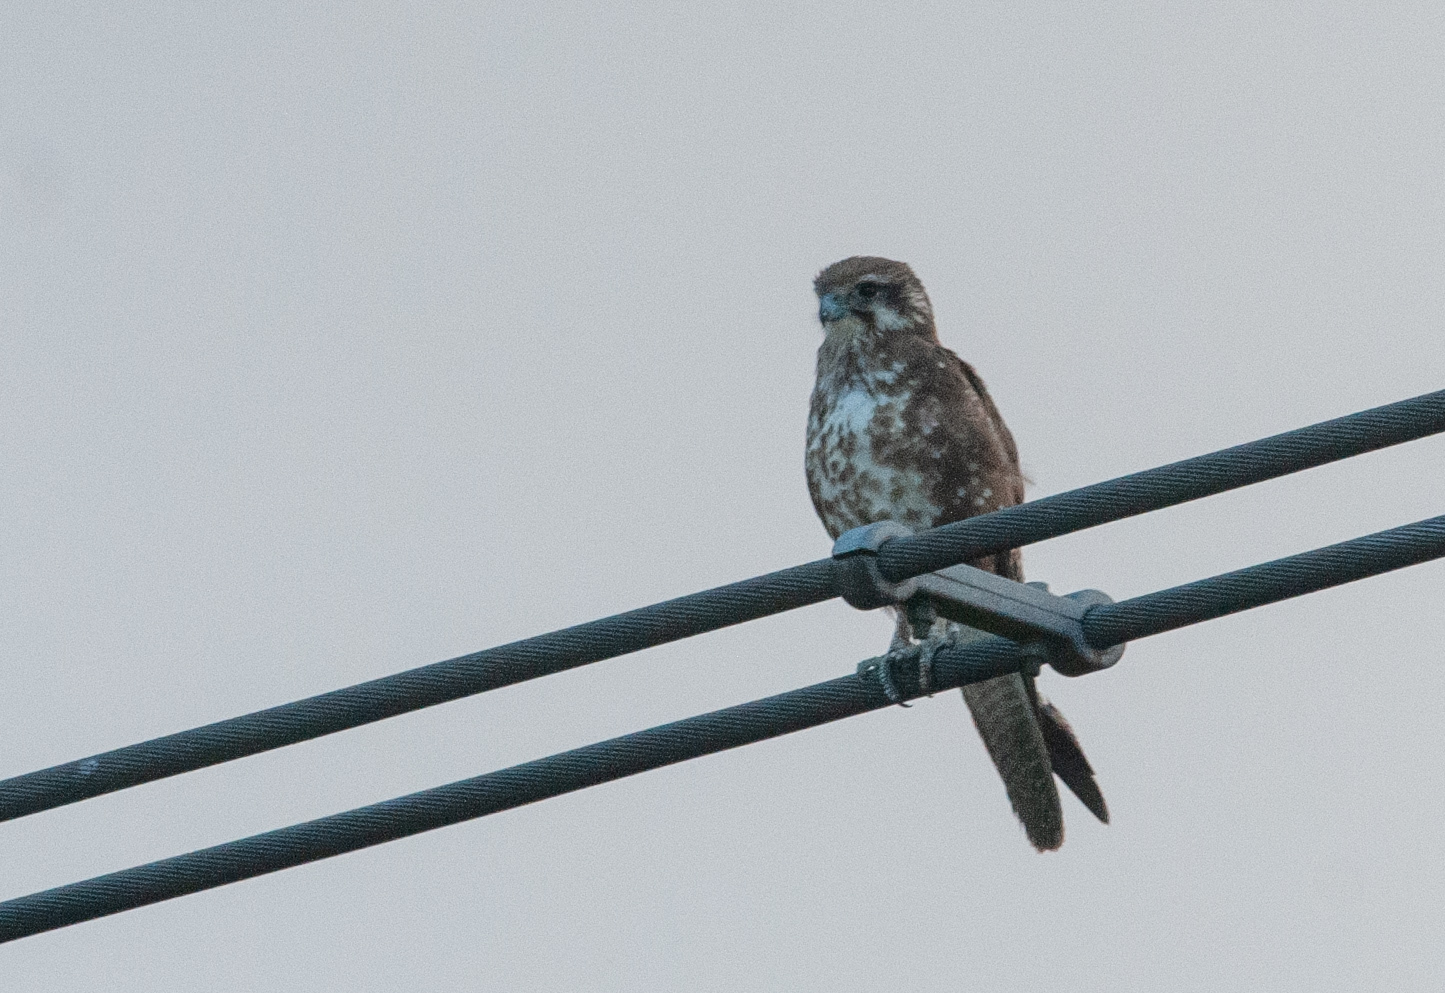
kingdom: Animalia
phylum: Chordata
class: Aves
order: Falconiformes
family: Falconidae
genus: Falco
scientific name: Falco berigora
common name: Brown falcon
